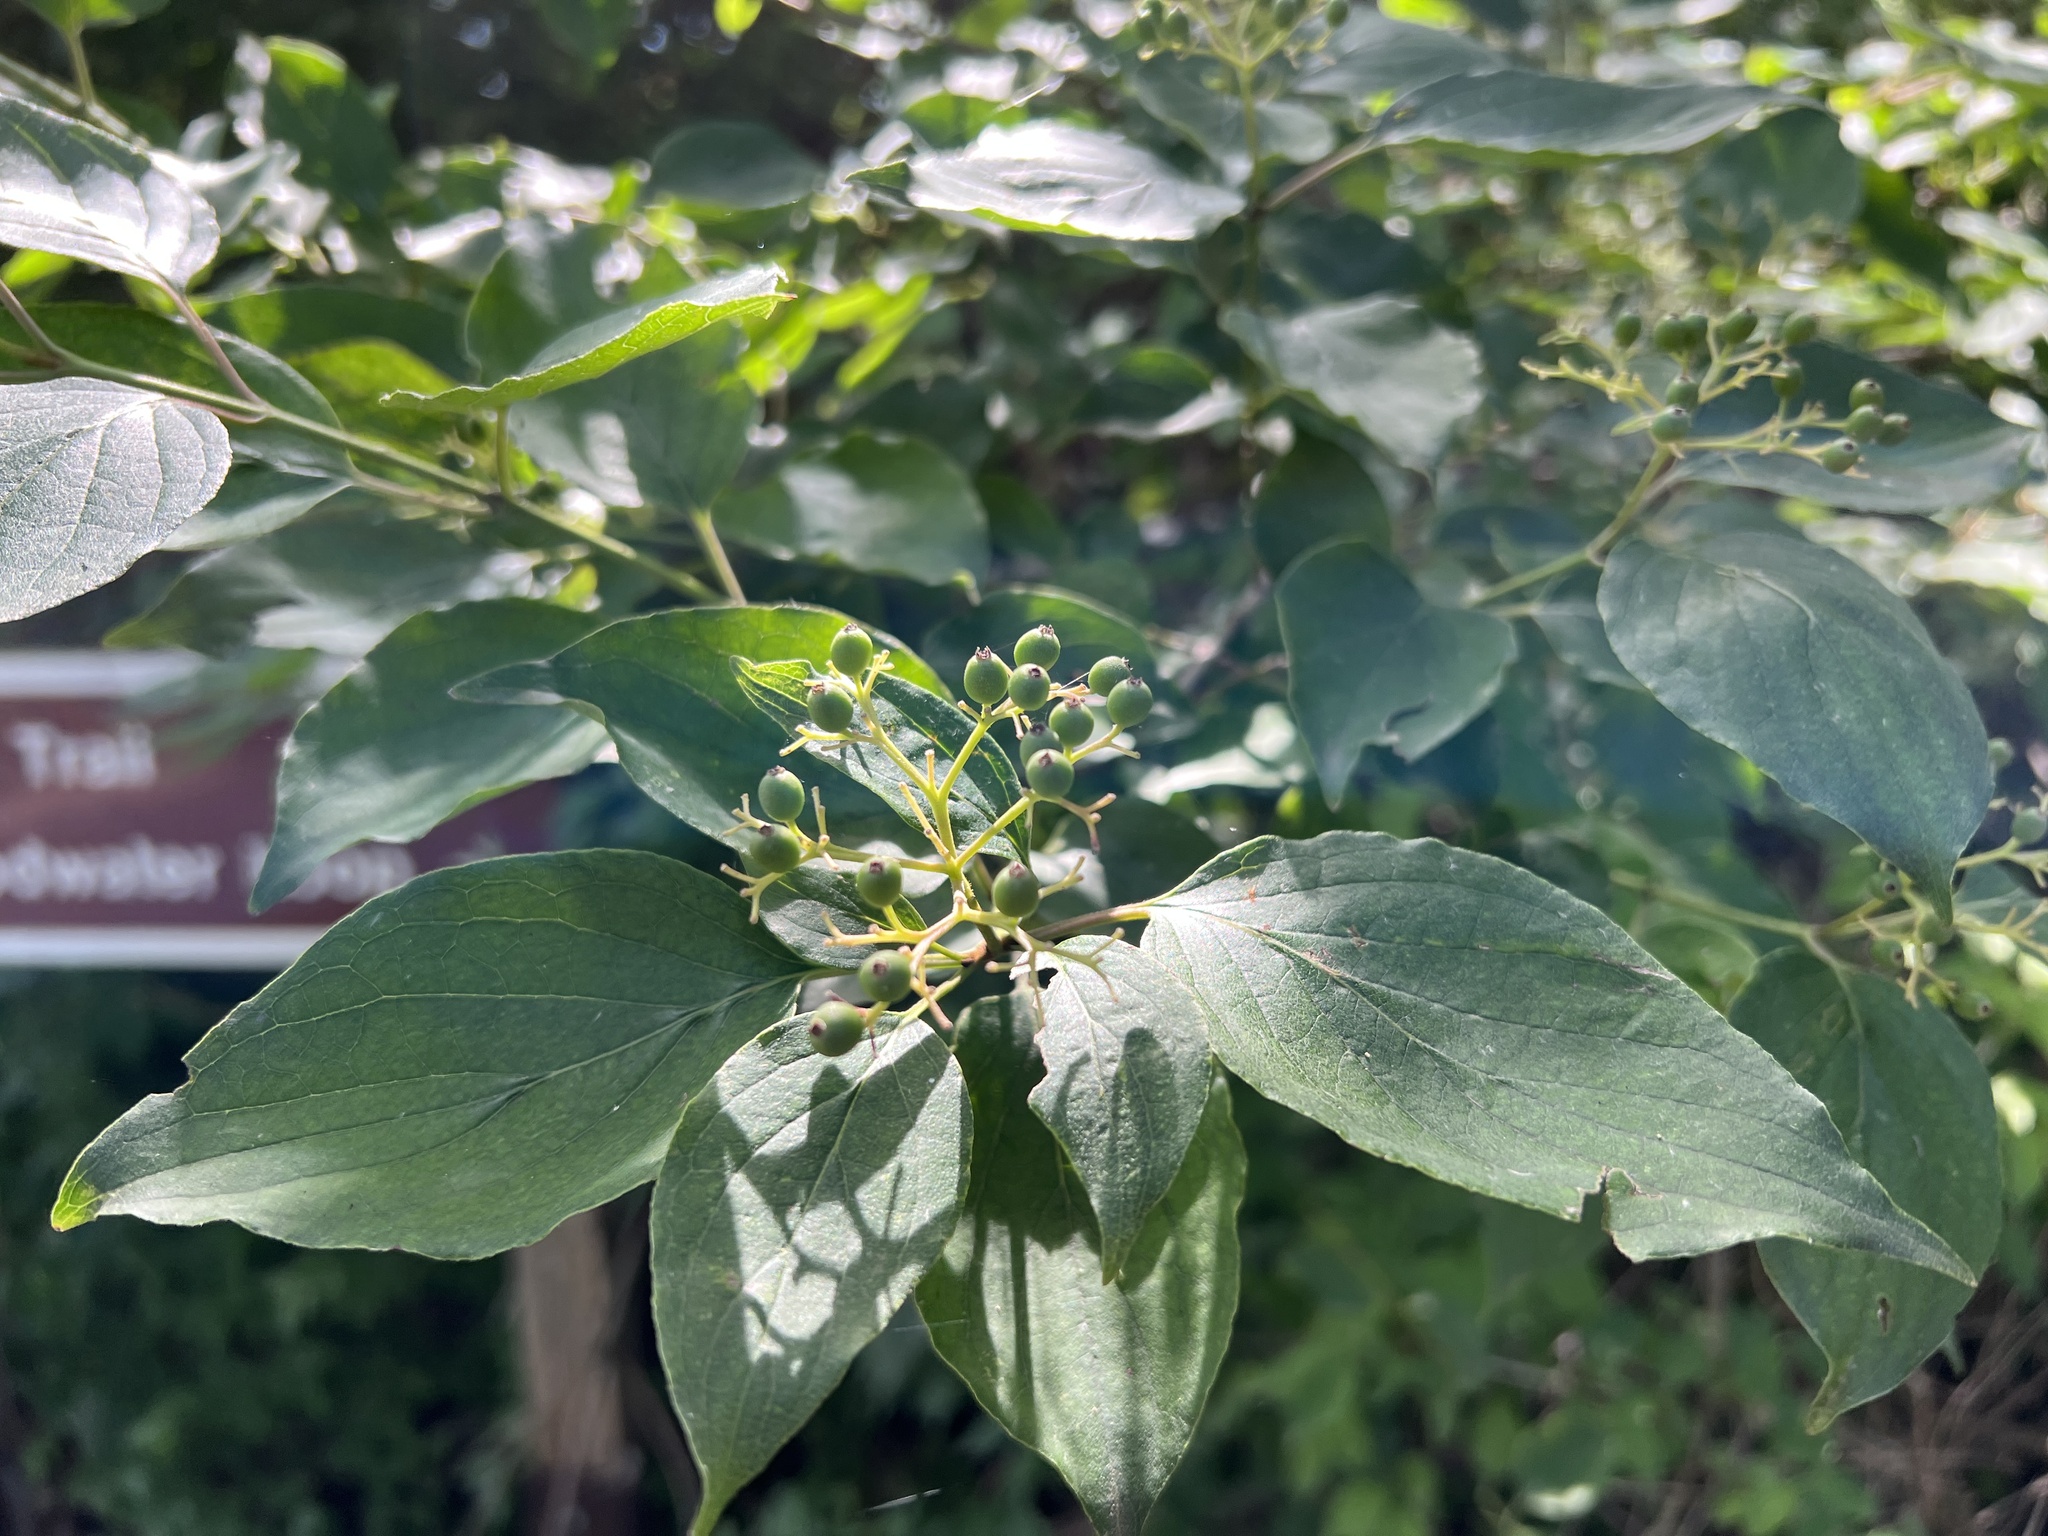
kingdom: Plantae
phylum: Tracheophyta
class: Magnoliopsida
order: Cornales
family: Cornaceae
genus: Cornus
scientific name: Cornus drummondii
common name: Rough-leaf dogwood
